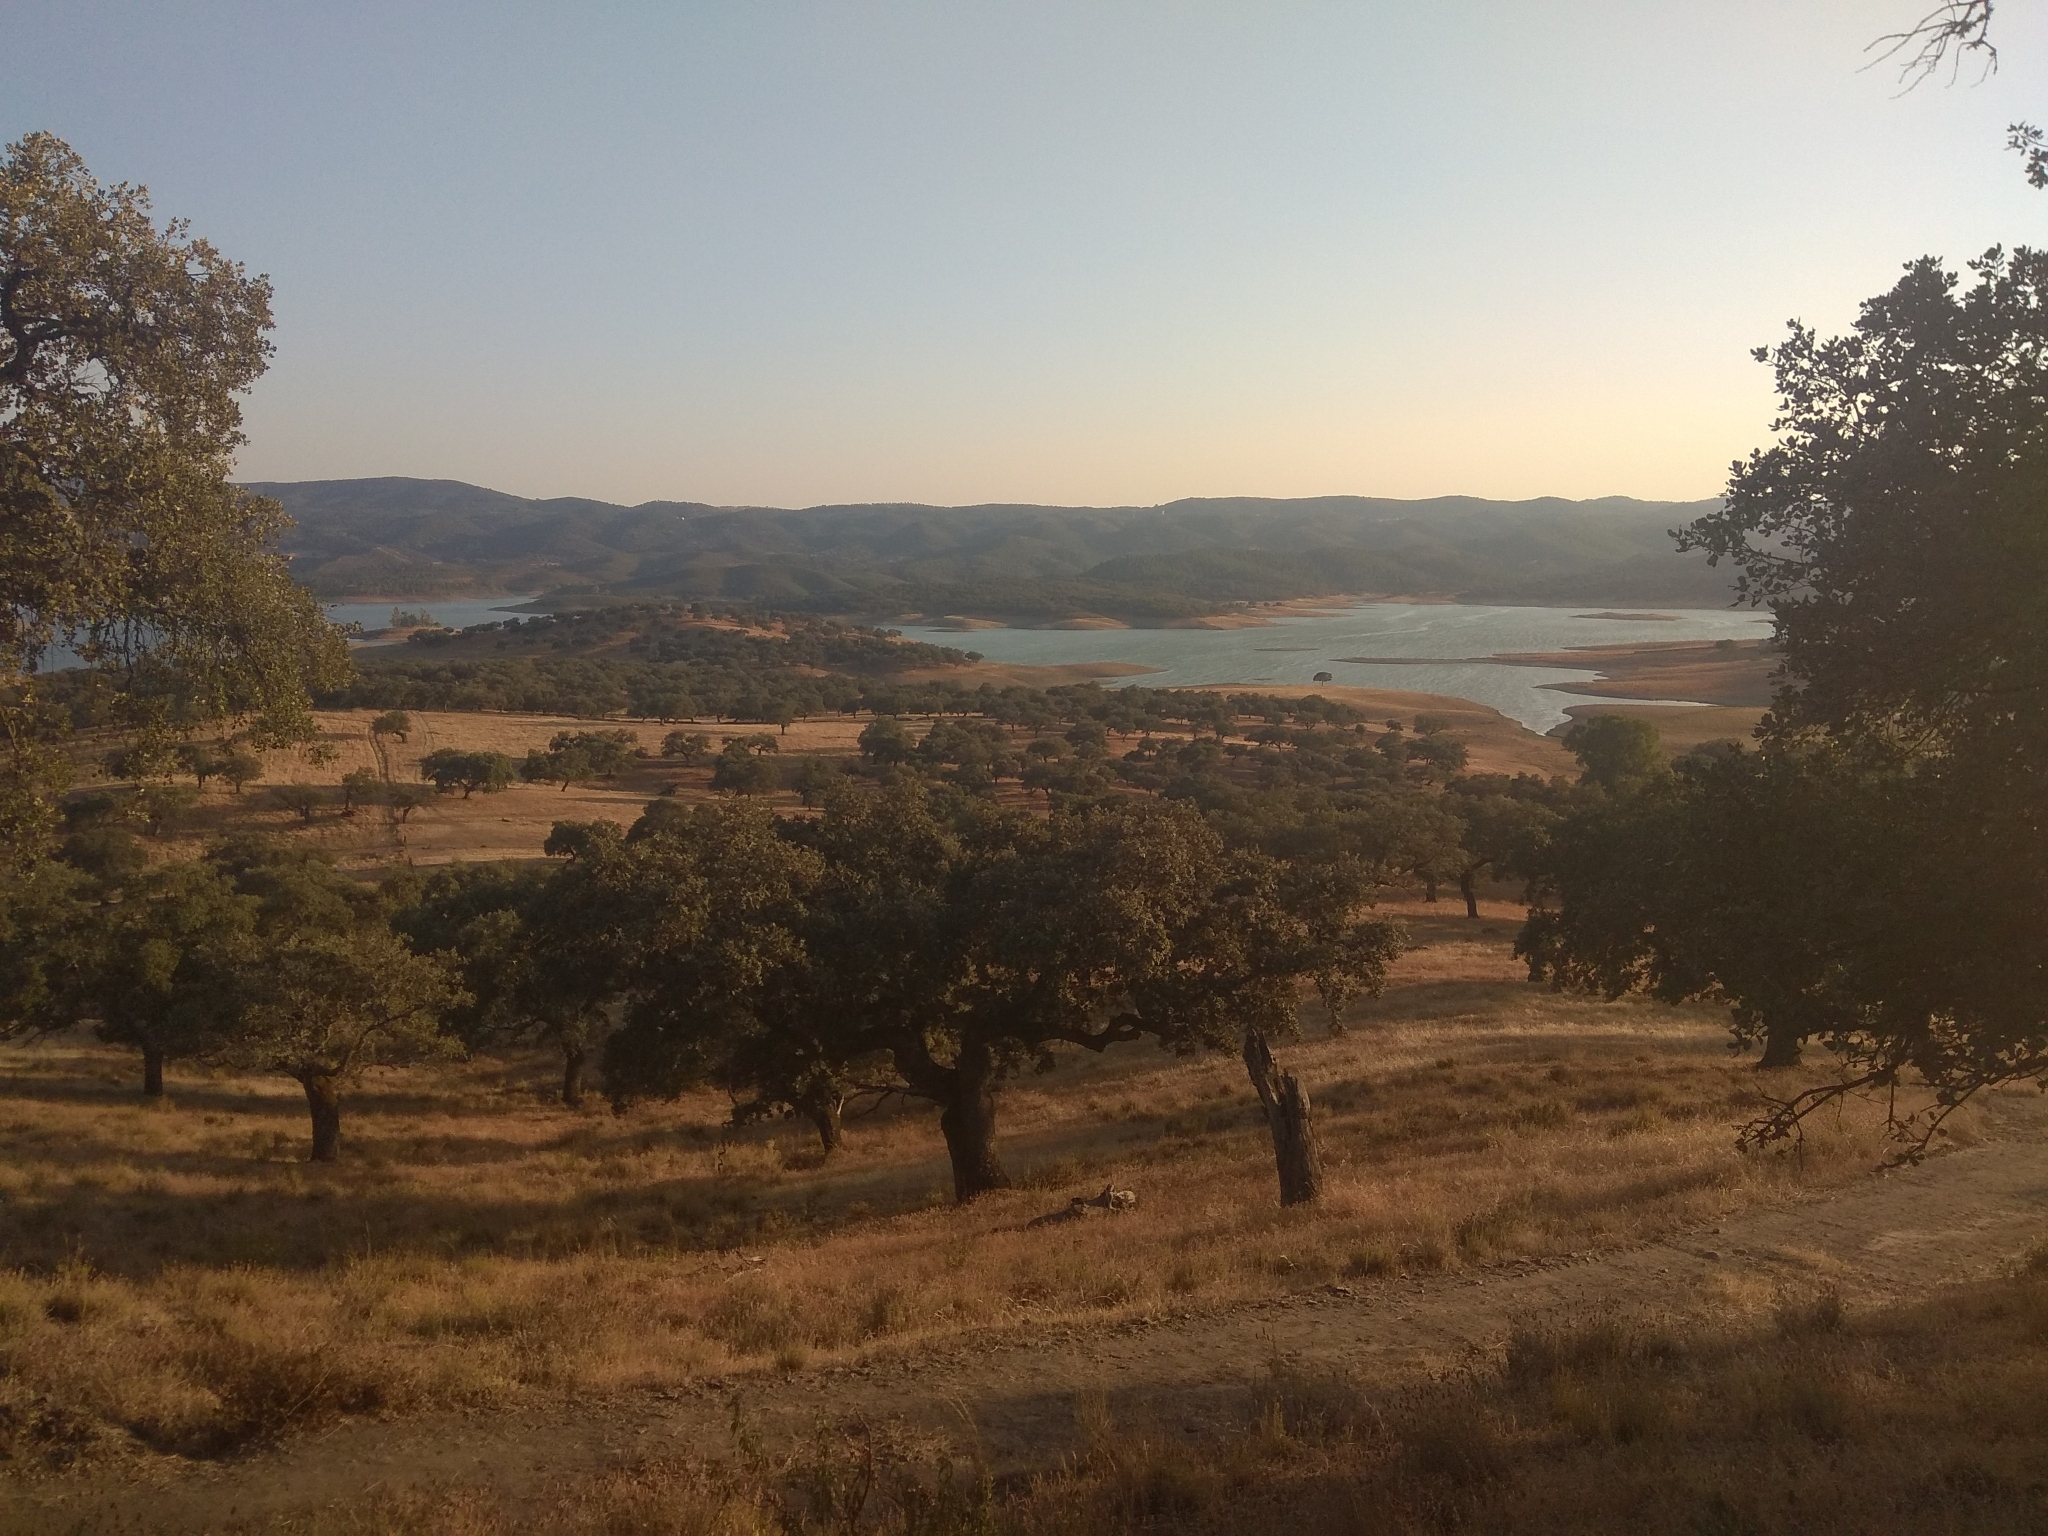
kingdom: Plantae
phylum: Tracheophyta
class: Magnoliopsida
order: Fagales
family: Fagaceae
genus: Quercus
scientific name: Quercus rotundifolia
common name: Holm oak
